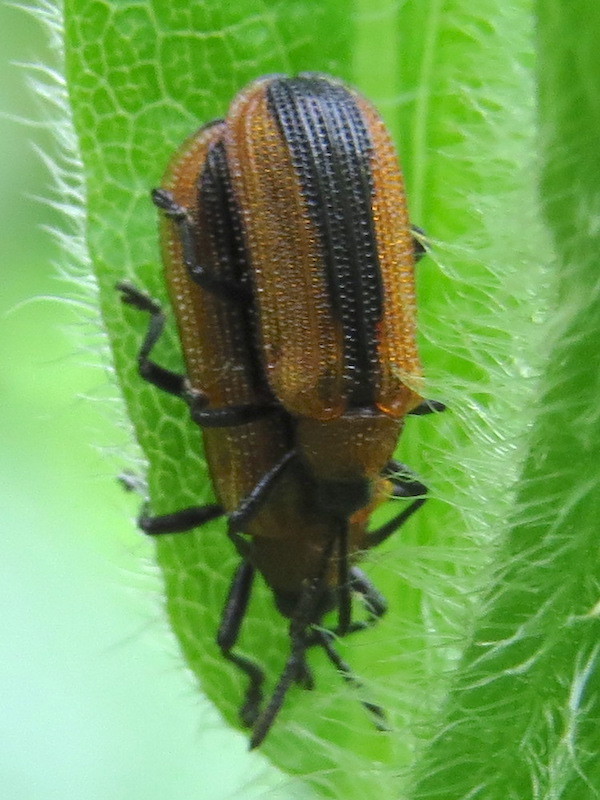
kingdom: Animalia
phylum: Arthropoda
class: Insecta
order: Coleoptera
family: Chrysomelidae
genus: Odontota
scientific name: Odontota dorsalis
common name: Locust leaf-miner beetle
